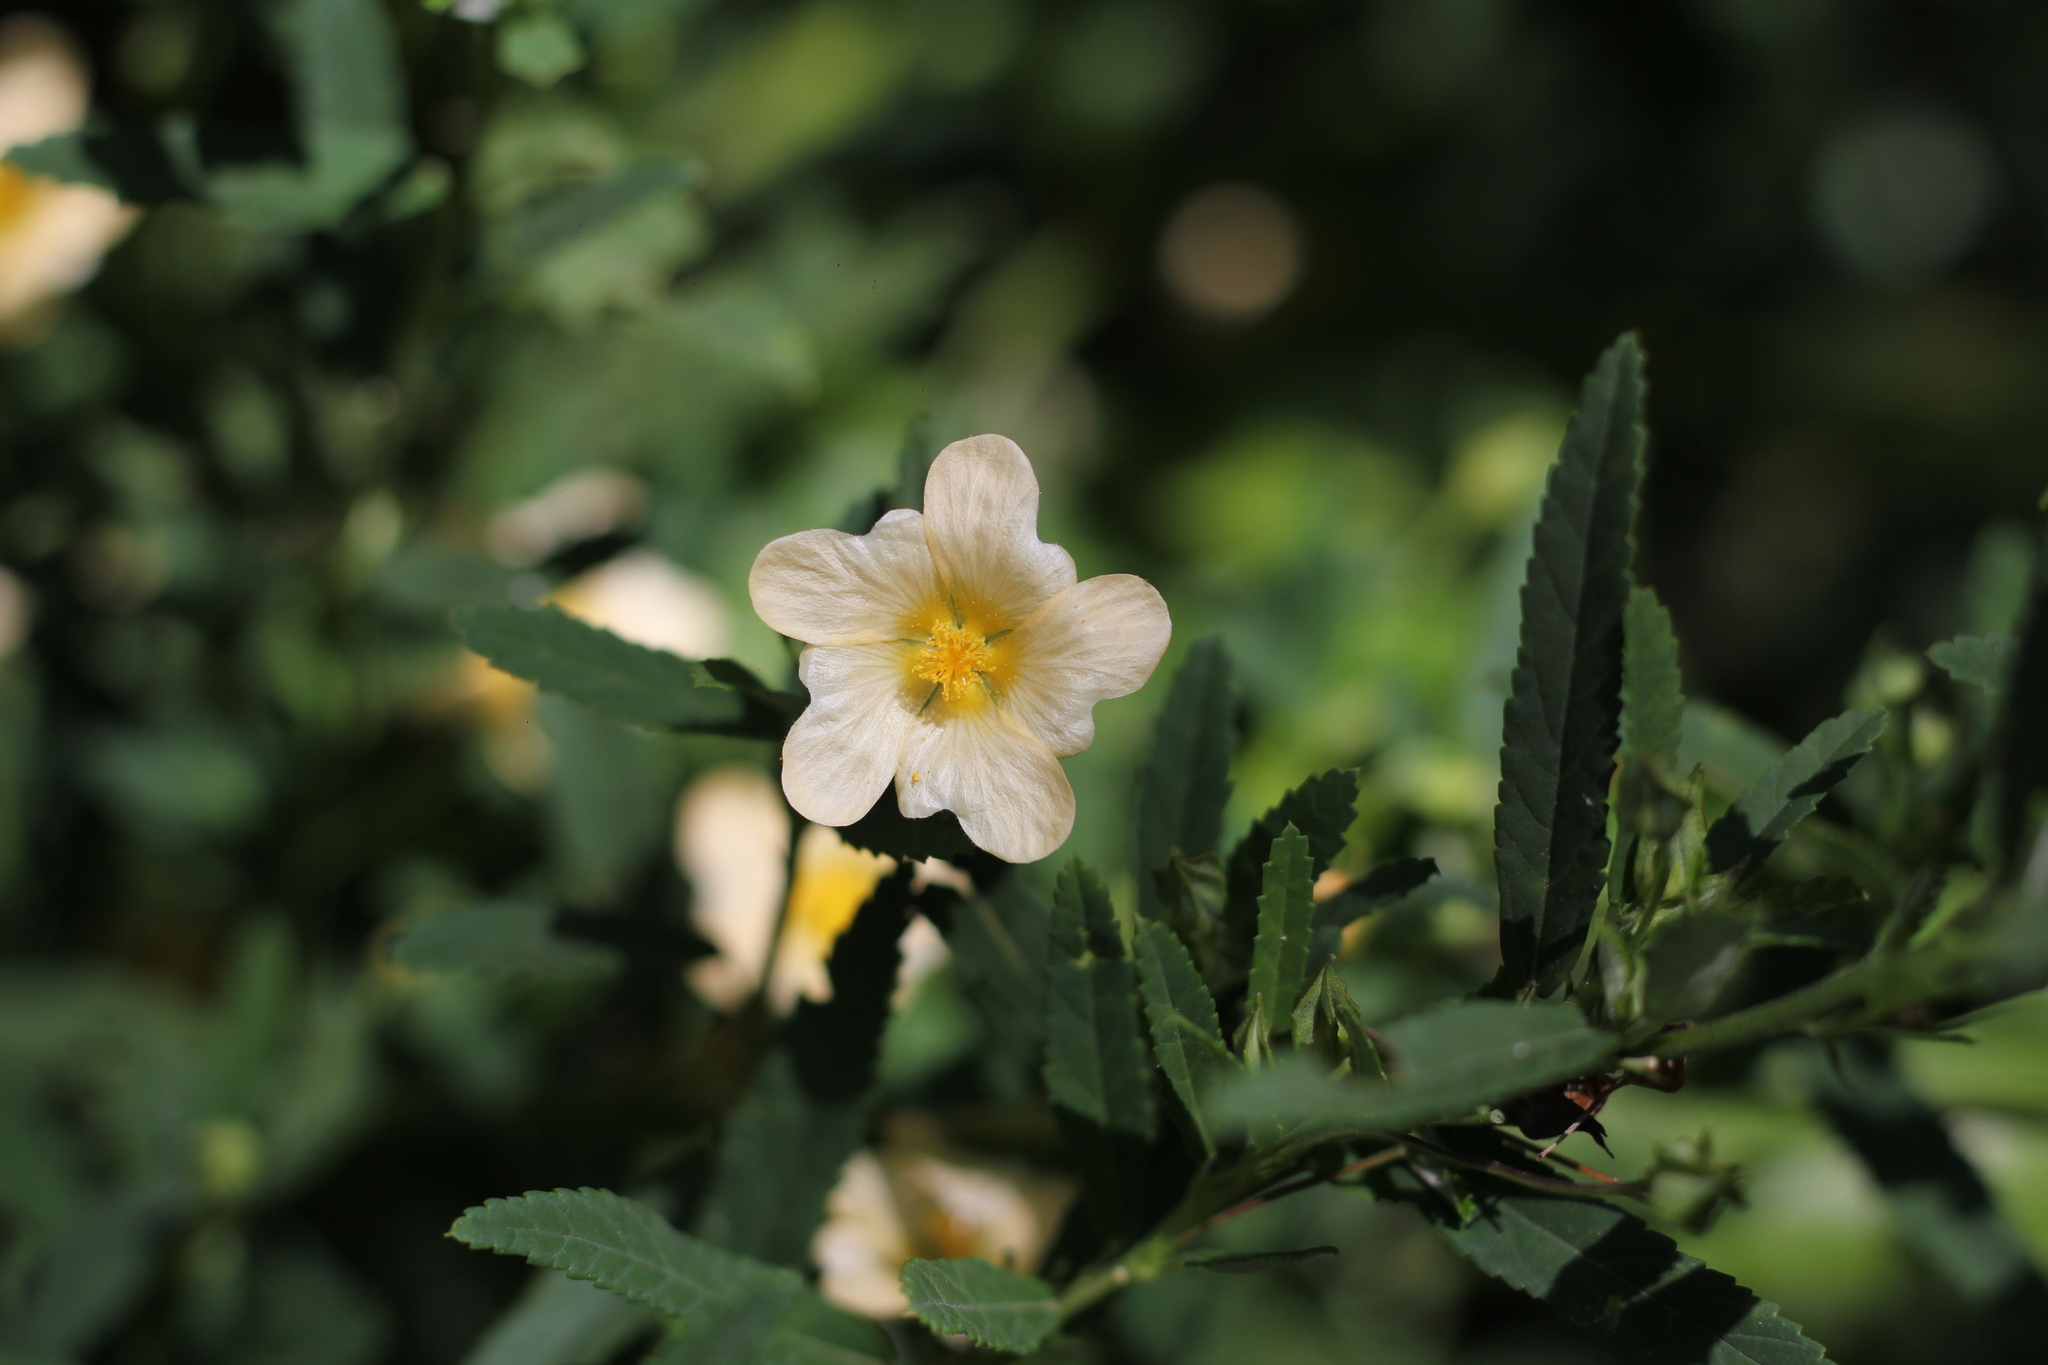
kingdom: Plantae
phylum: Tracheophyta
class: Magnoliopsida
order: Malvales
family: Malvaceae
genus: Sida
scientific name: Sida rhombifolia
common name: Queensland-hemp
